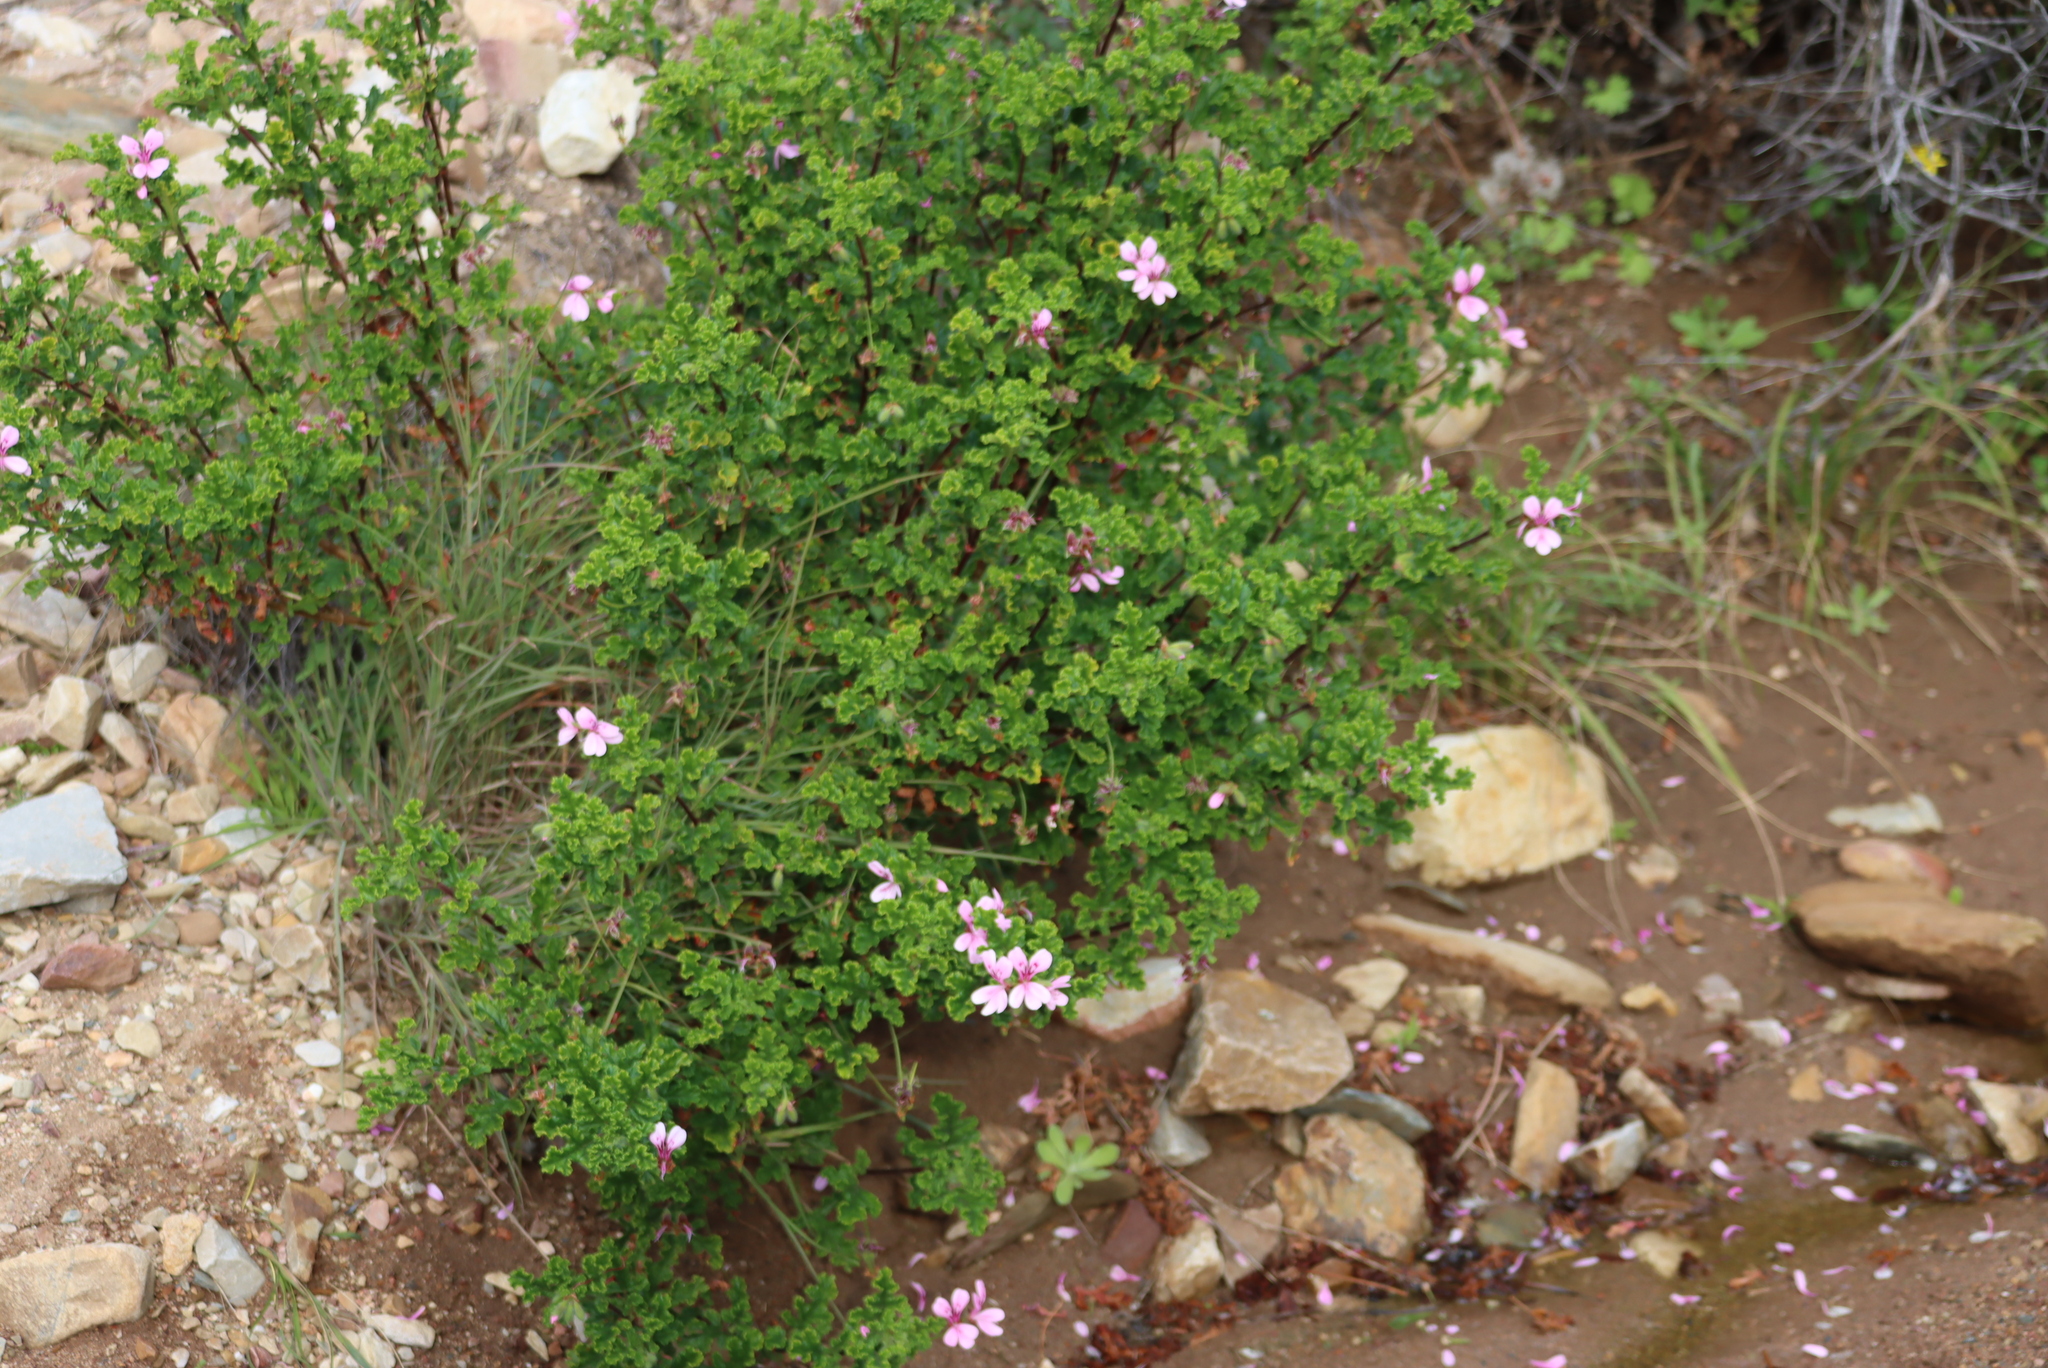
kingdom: Plantae
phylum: Tracheophyta
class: Magnoliopsida
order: Geraniales
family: Geraniaceae
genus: Pelargonium
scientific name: Pelargonium panduriforme
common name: Oakleaf garden geranium
